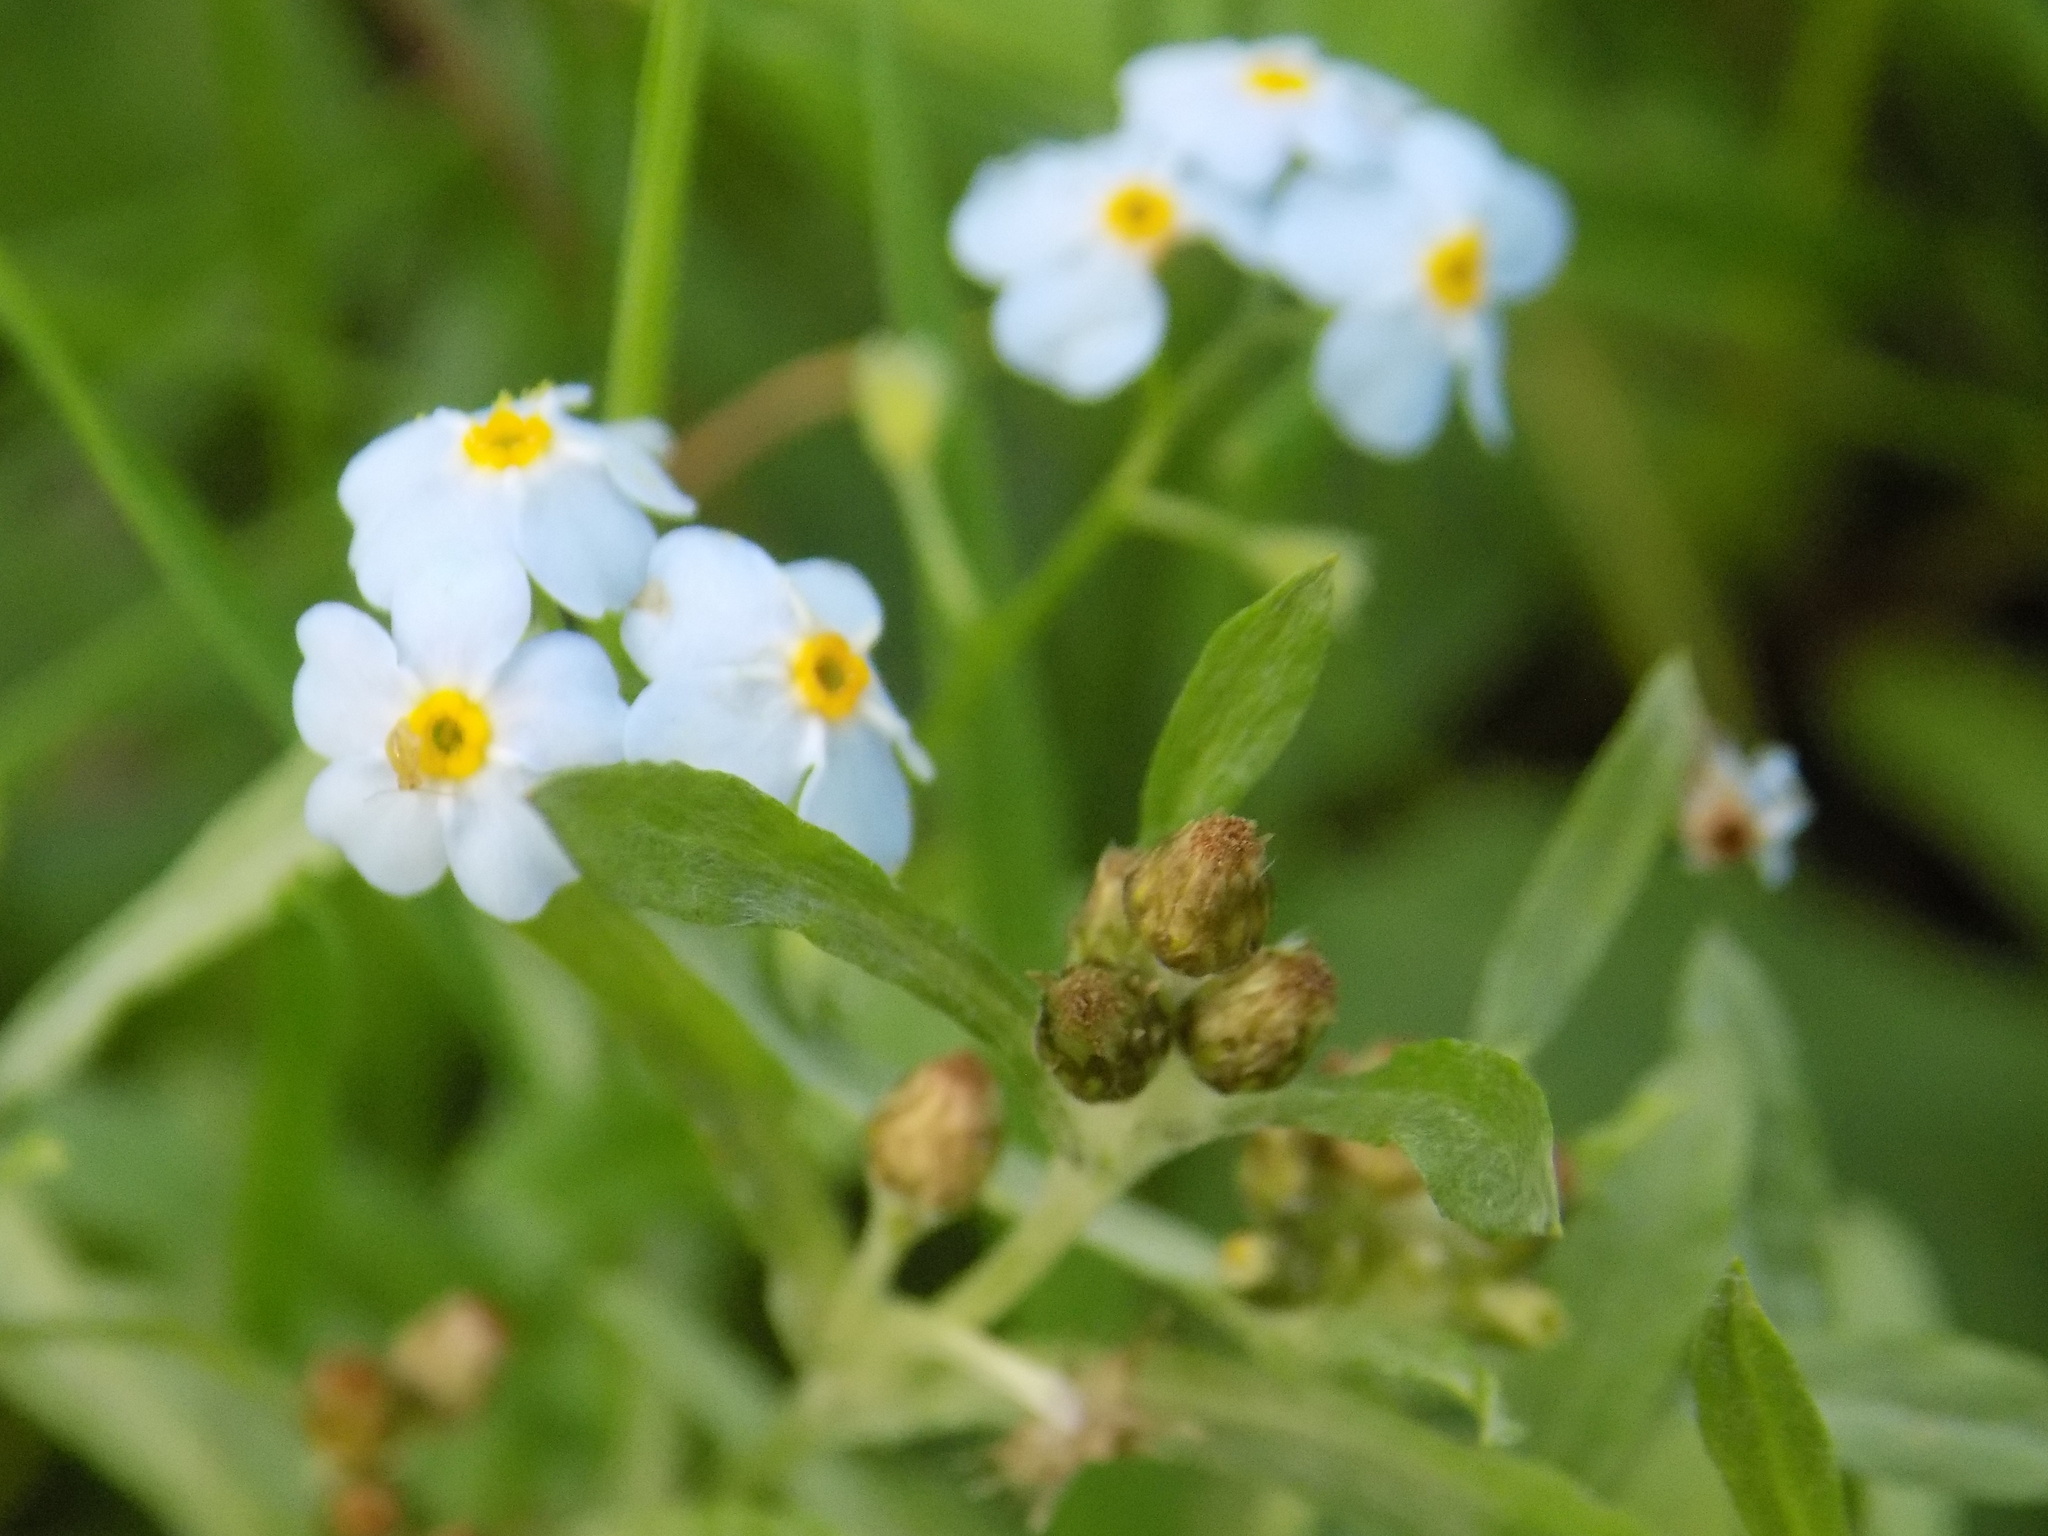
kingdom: Plantae
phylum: Tracheophyta
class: Magnoliopsida
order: Boraginales
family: Boraginaceae
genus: Myosotis
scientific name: Myosotis scorpioides
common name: Water forget-me-not
